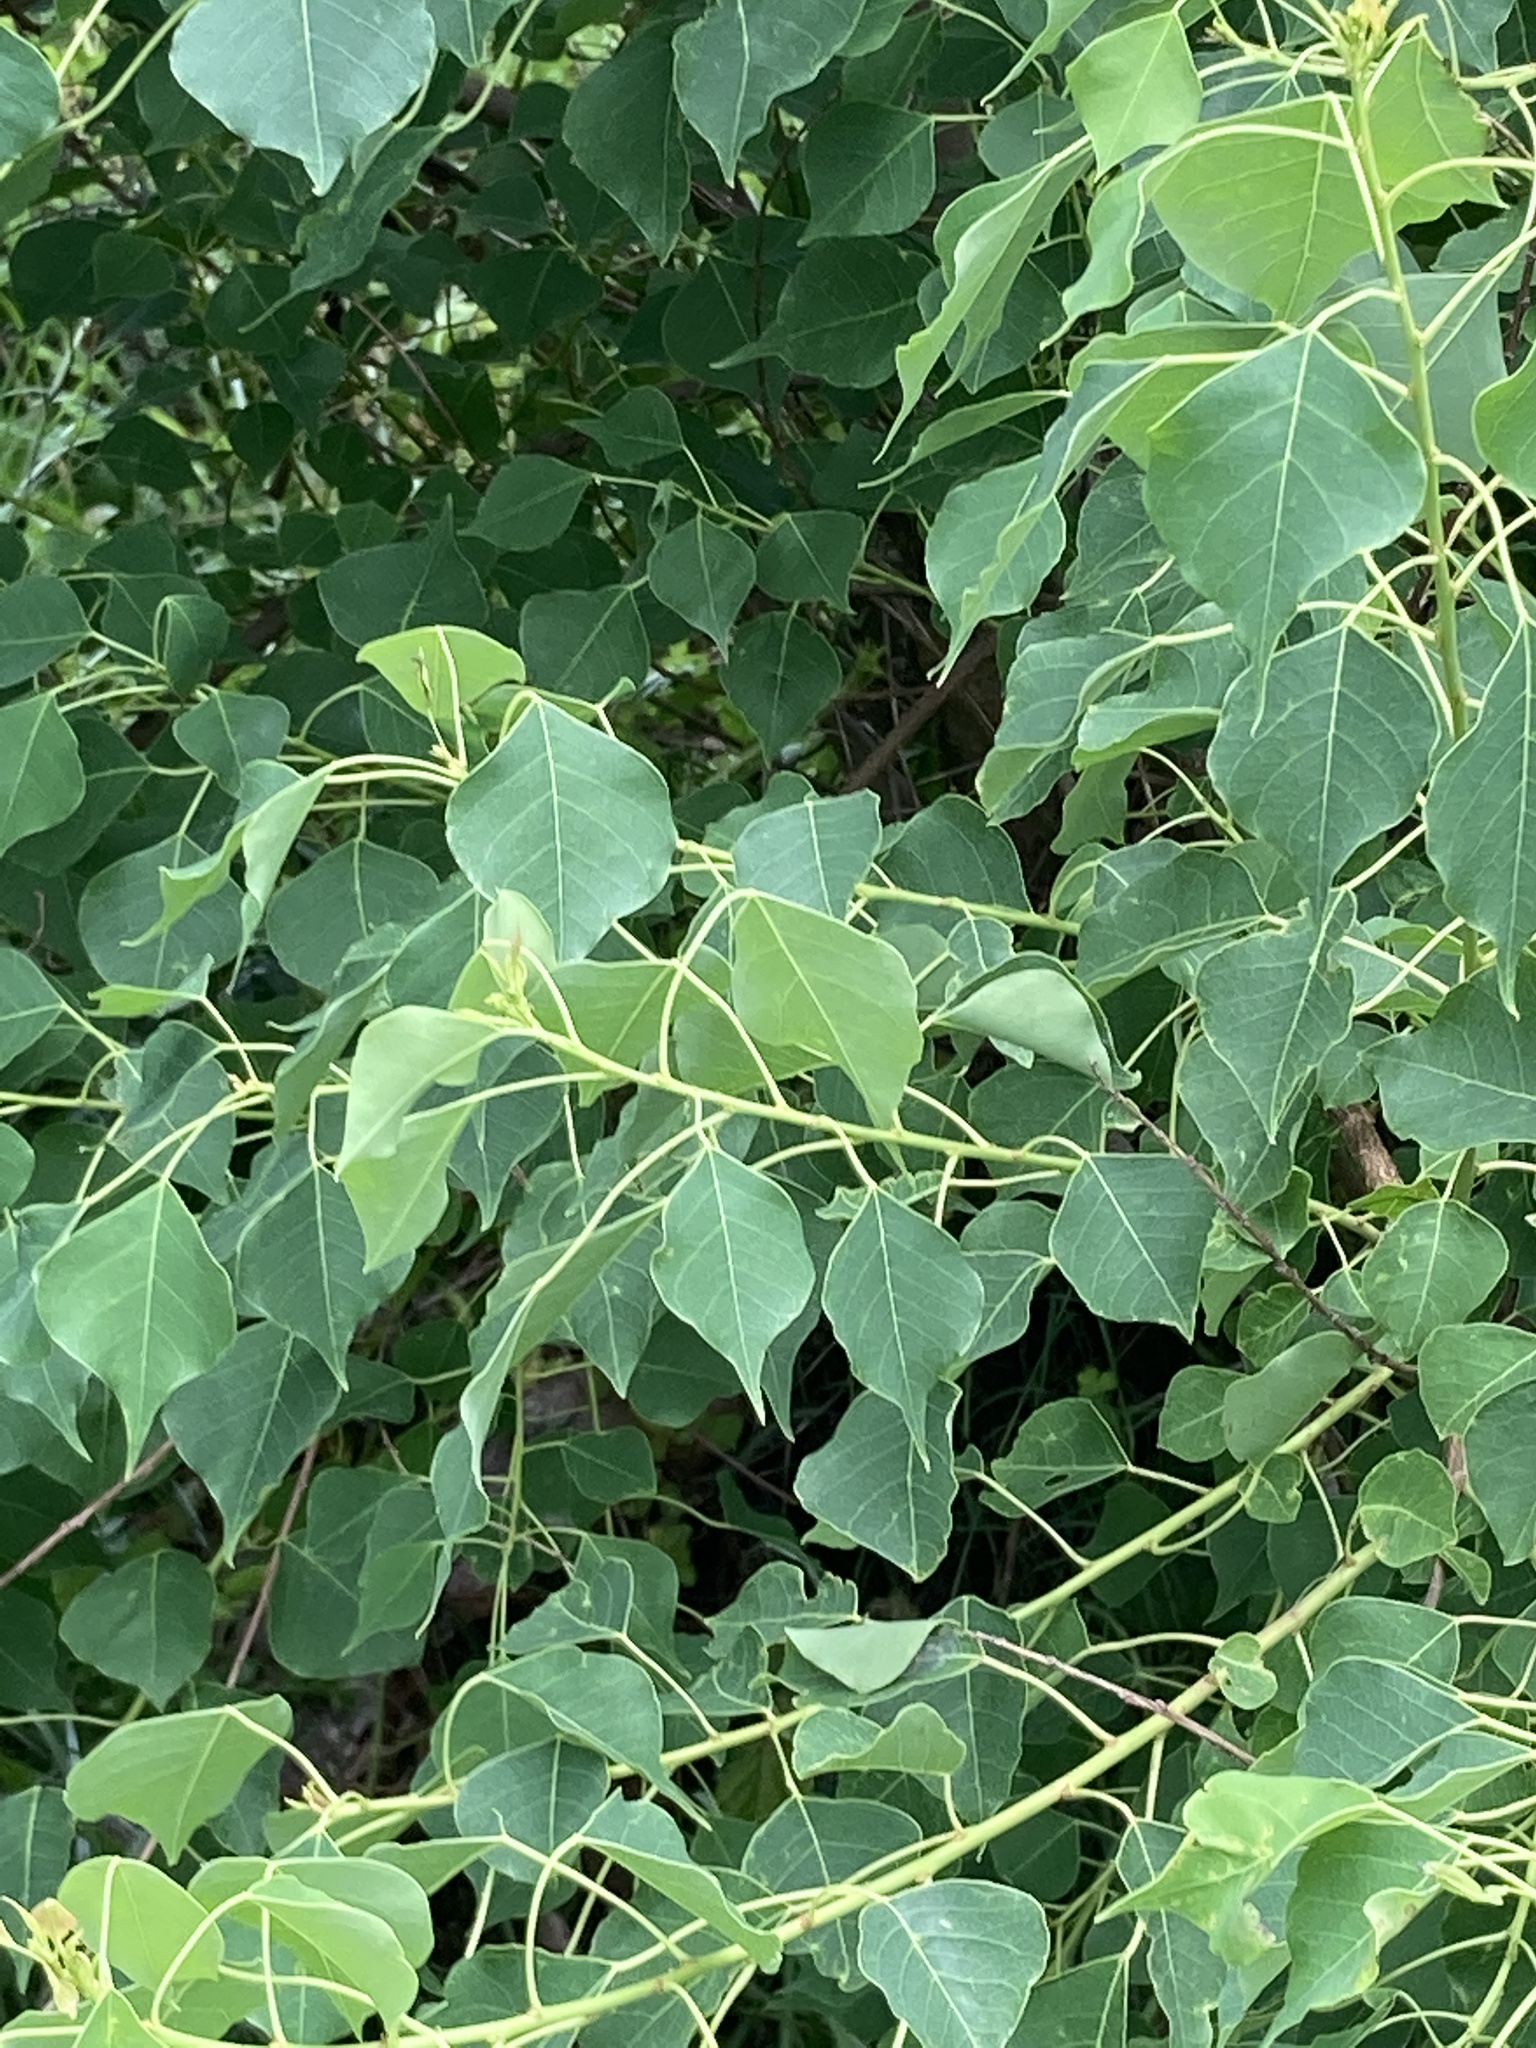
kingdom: Plantae
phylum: Tracheophyta
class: Magnoliopsida
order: Malpighiales
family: Euphorbiaceae
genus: Triadica
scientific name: Triadica sebifera
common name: Chinese tallow
